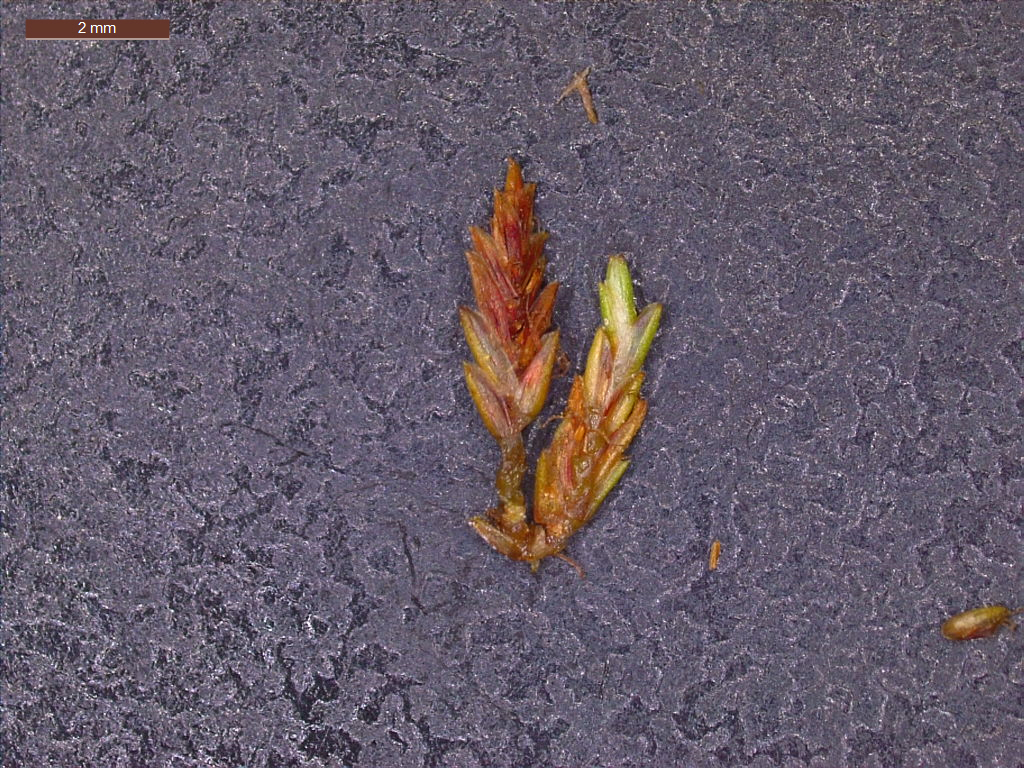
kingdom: Plantae
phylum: Tracheophyta
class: Liliopsida
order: Poales
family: Cyperaceae
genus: Cyperus
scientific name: Cyperus haspan
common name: Haspan flatsedge
